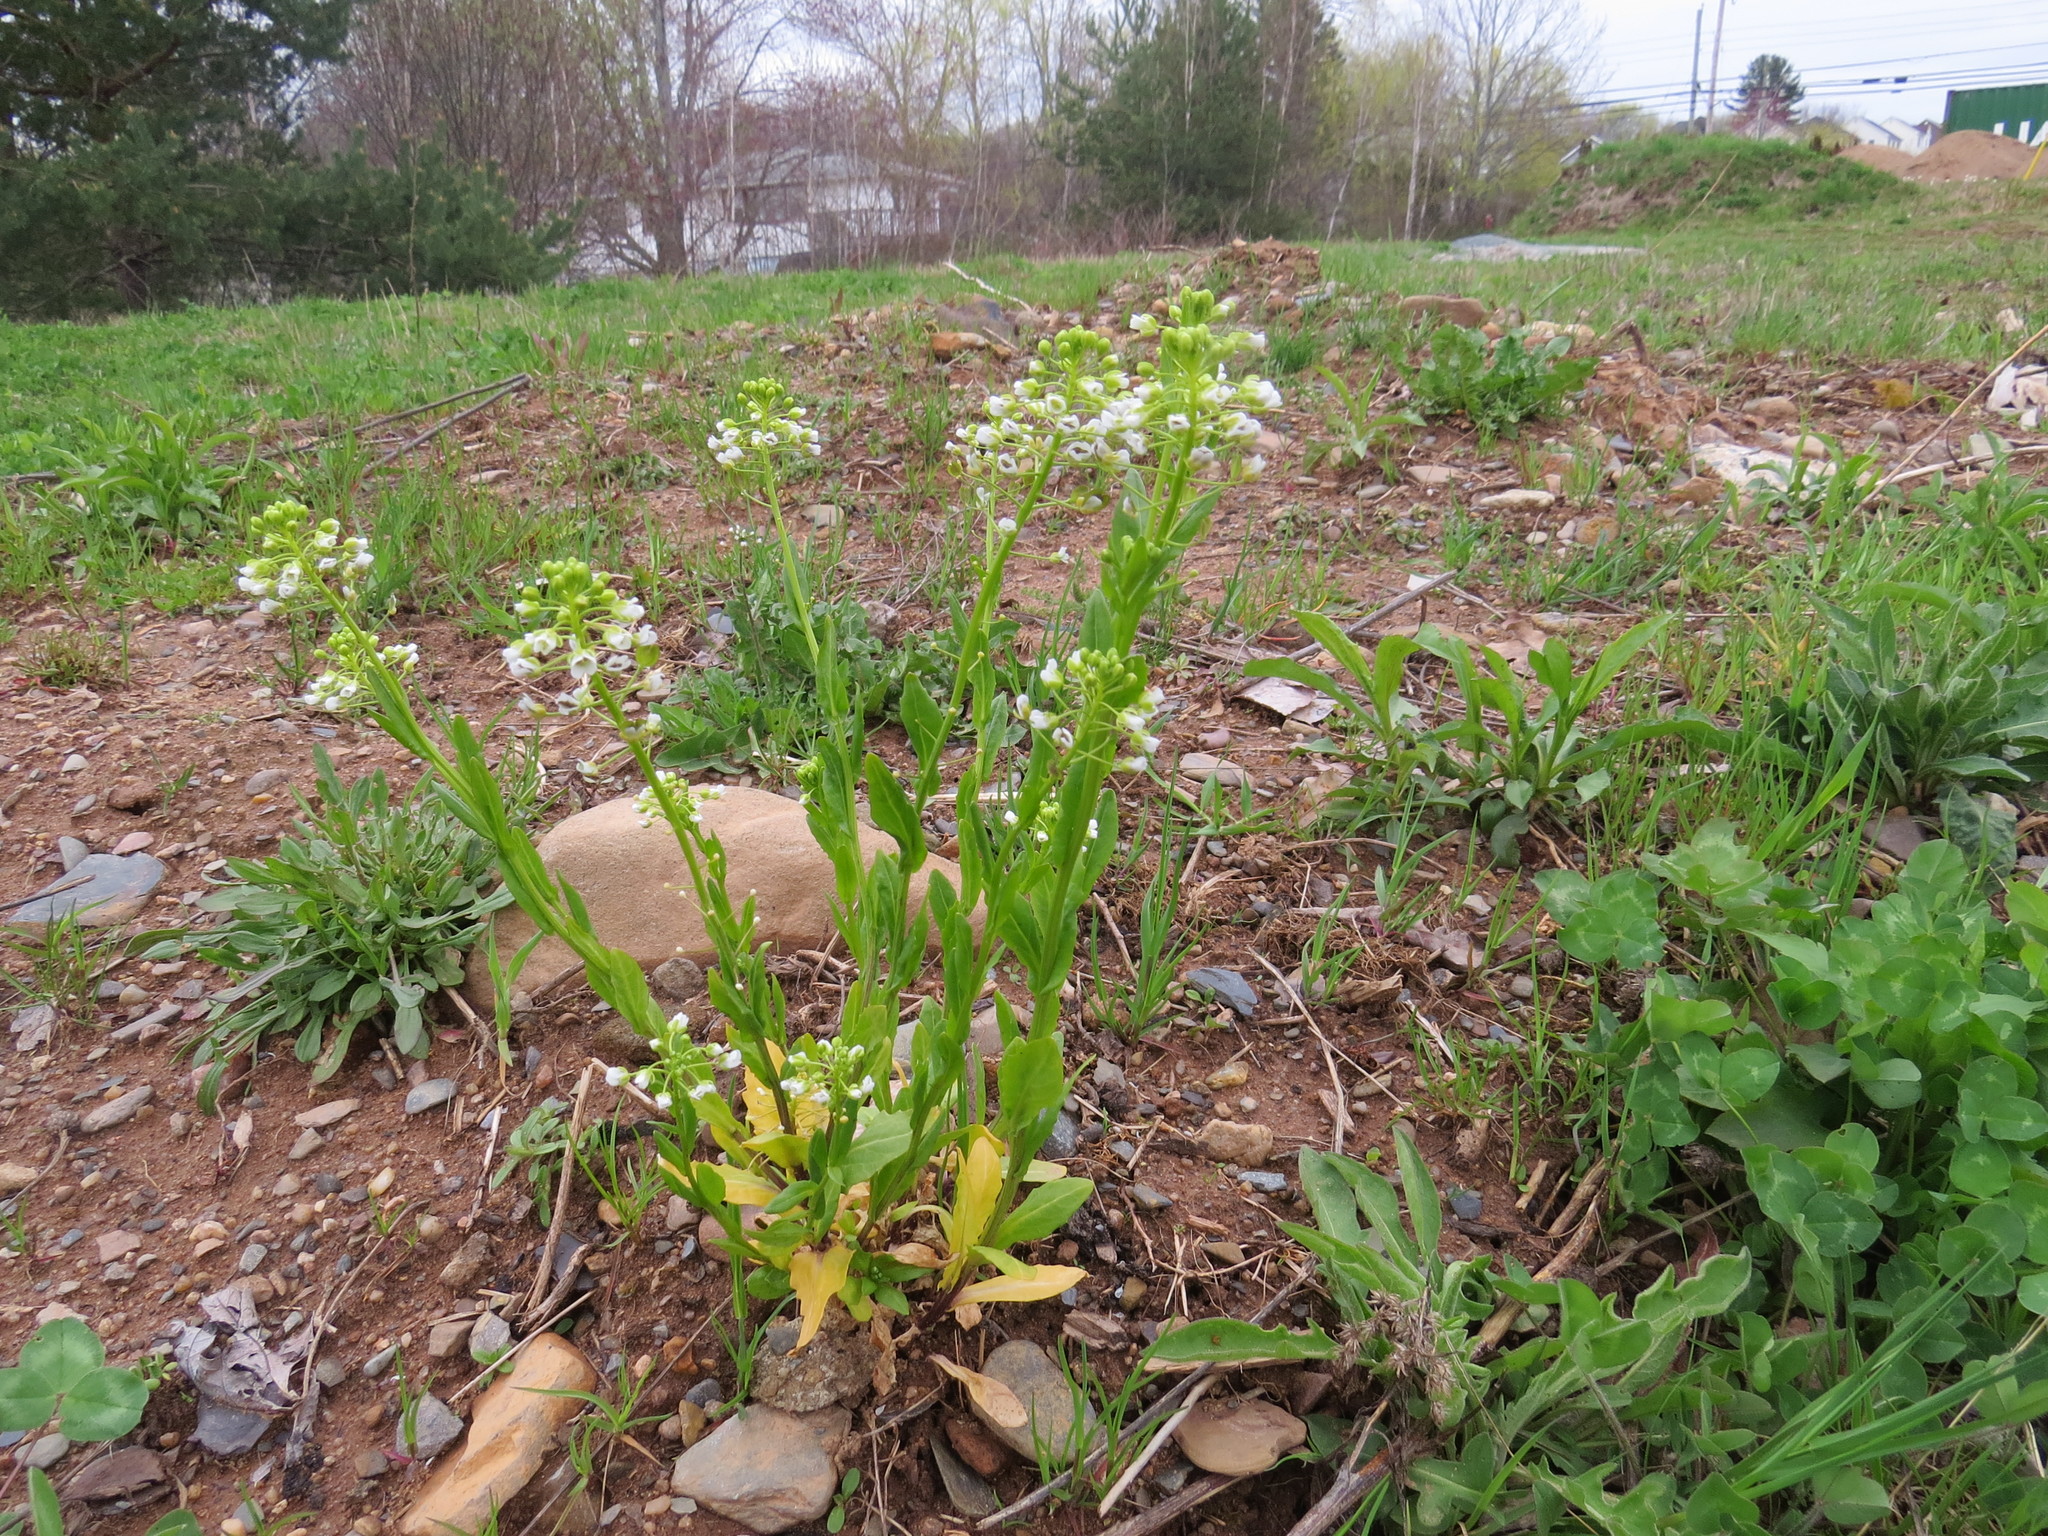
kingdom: Plantae
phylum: Tracheophyta
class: Magnoliopsida
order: Brassicales
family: Brassicaceae
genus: Thlaspi
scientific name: Thlaspi arvense
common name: Field pennycress
